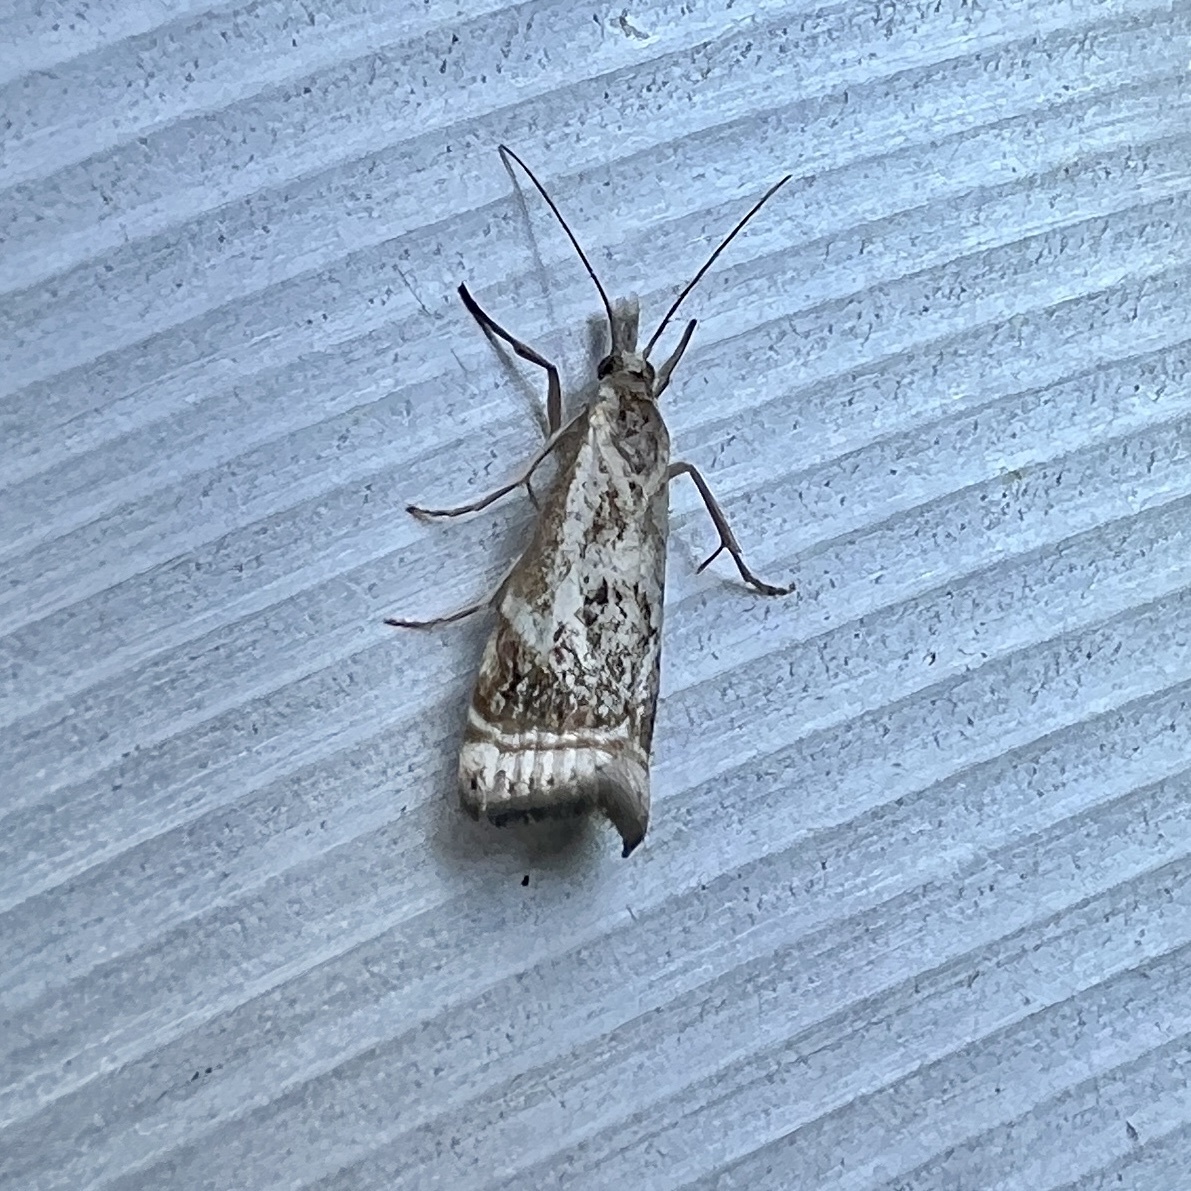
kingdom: Animalia
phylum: Arthropoda
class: Insecta
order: Lepidoptera
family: Crambidae
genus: Microcrambus
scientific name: Microcrambus elegans
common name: Elegant grass-veneer
